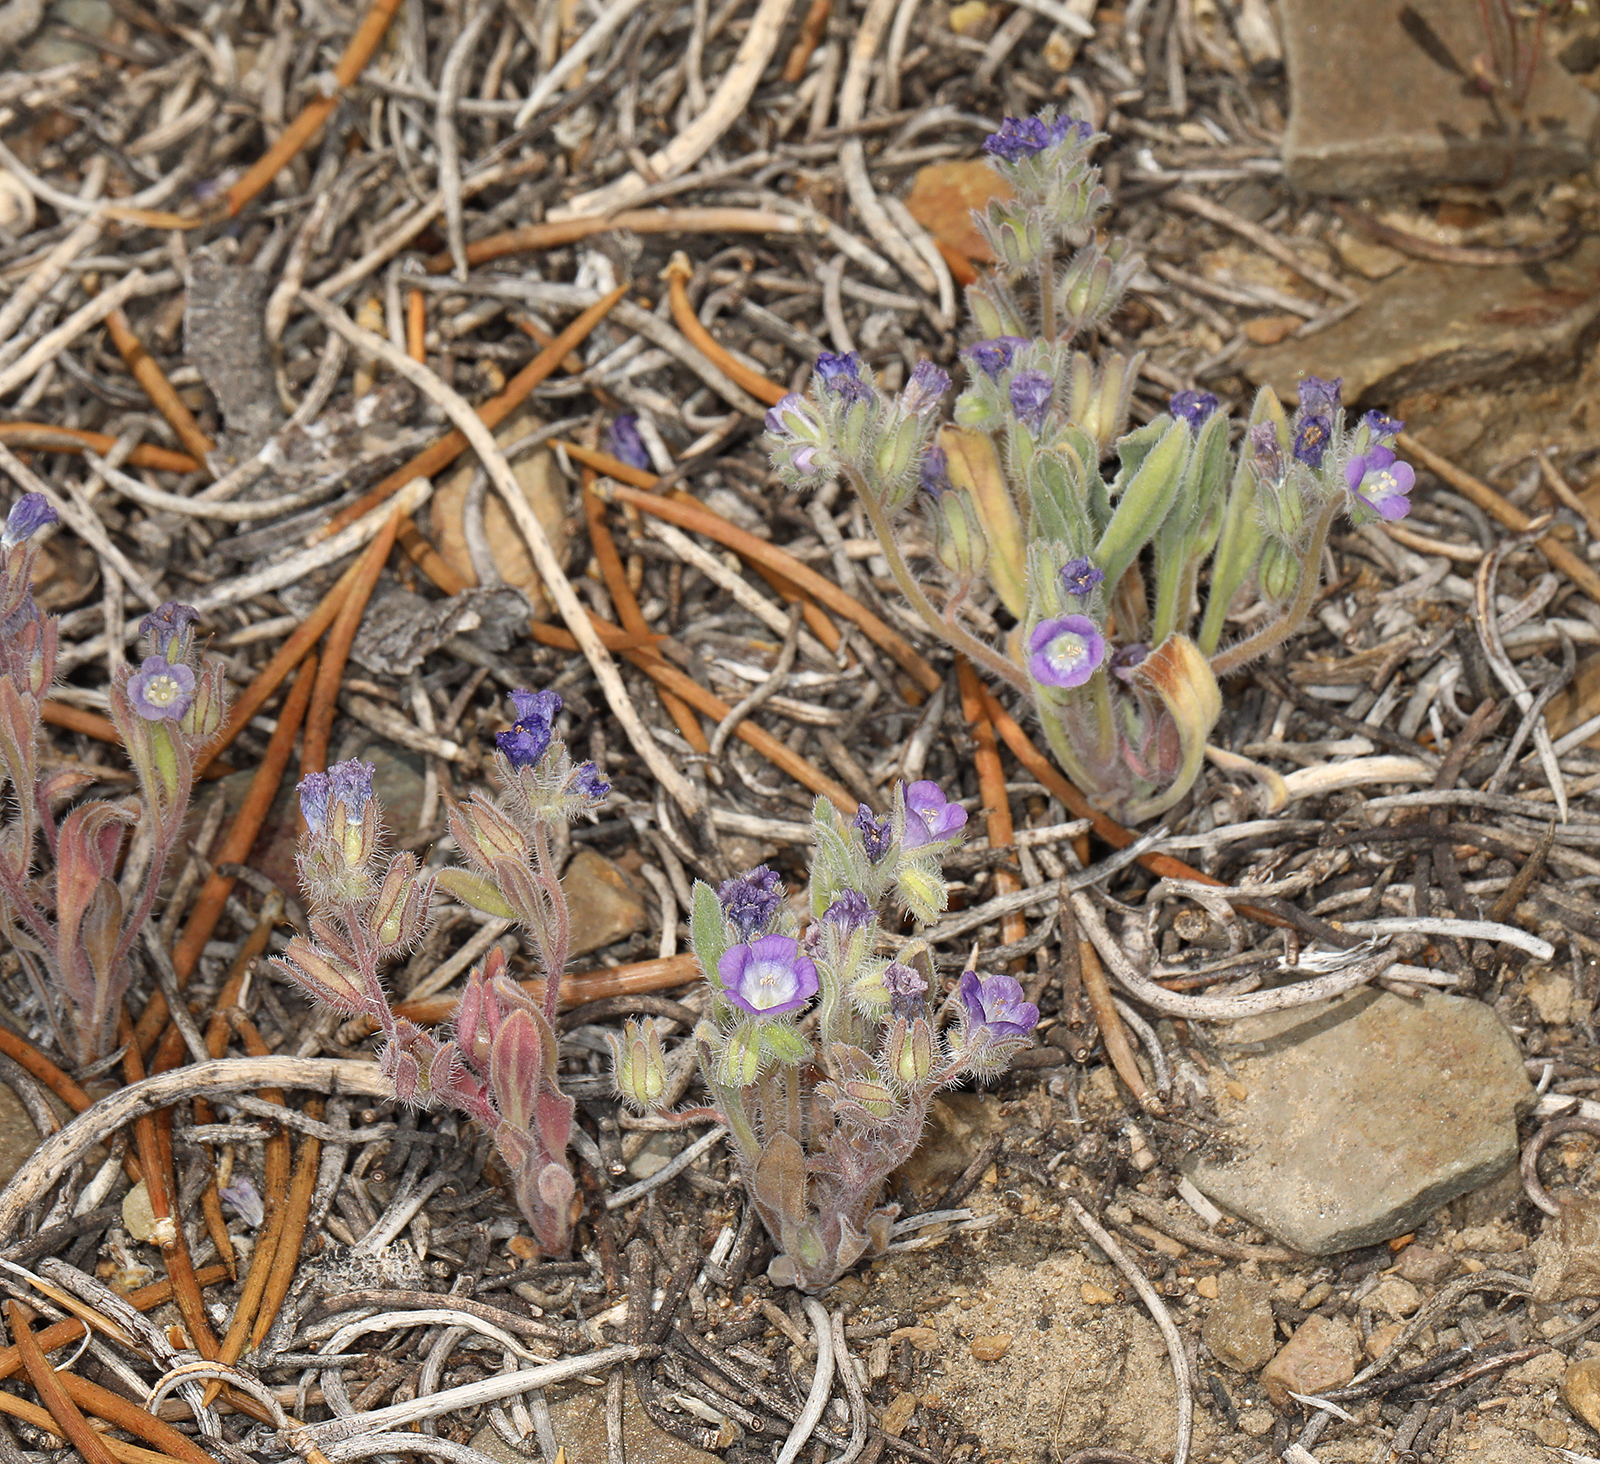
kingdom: Plantae
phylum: Tracheophyta
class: Magnoliopsida
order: Boraginales
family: Hydrophyllaceae
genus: Phacelia
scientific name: Phacelia curvipes
